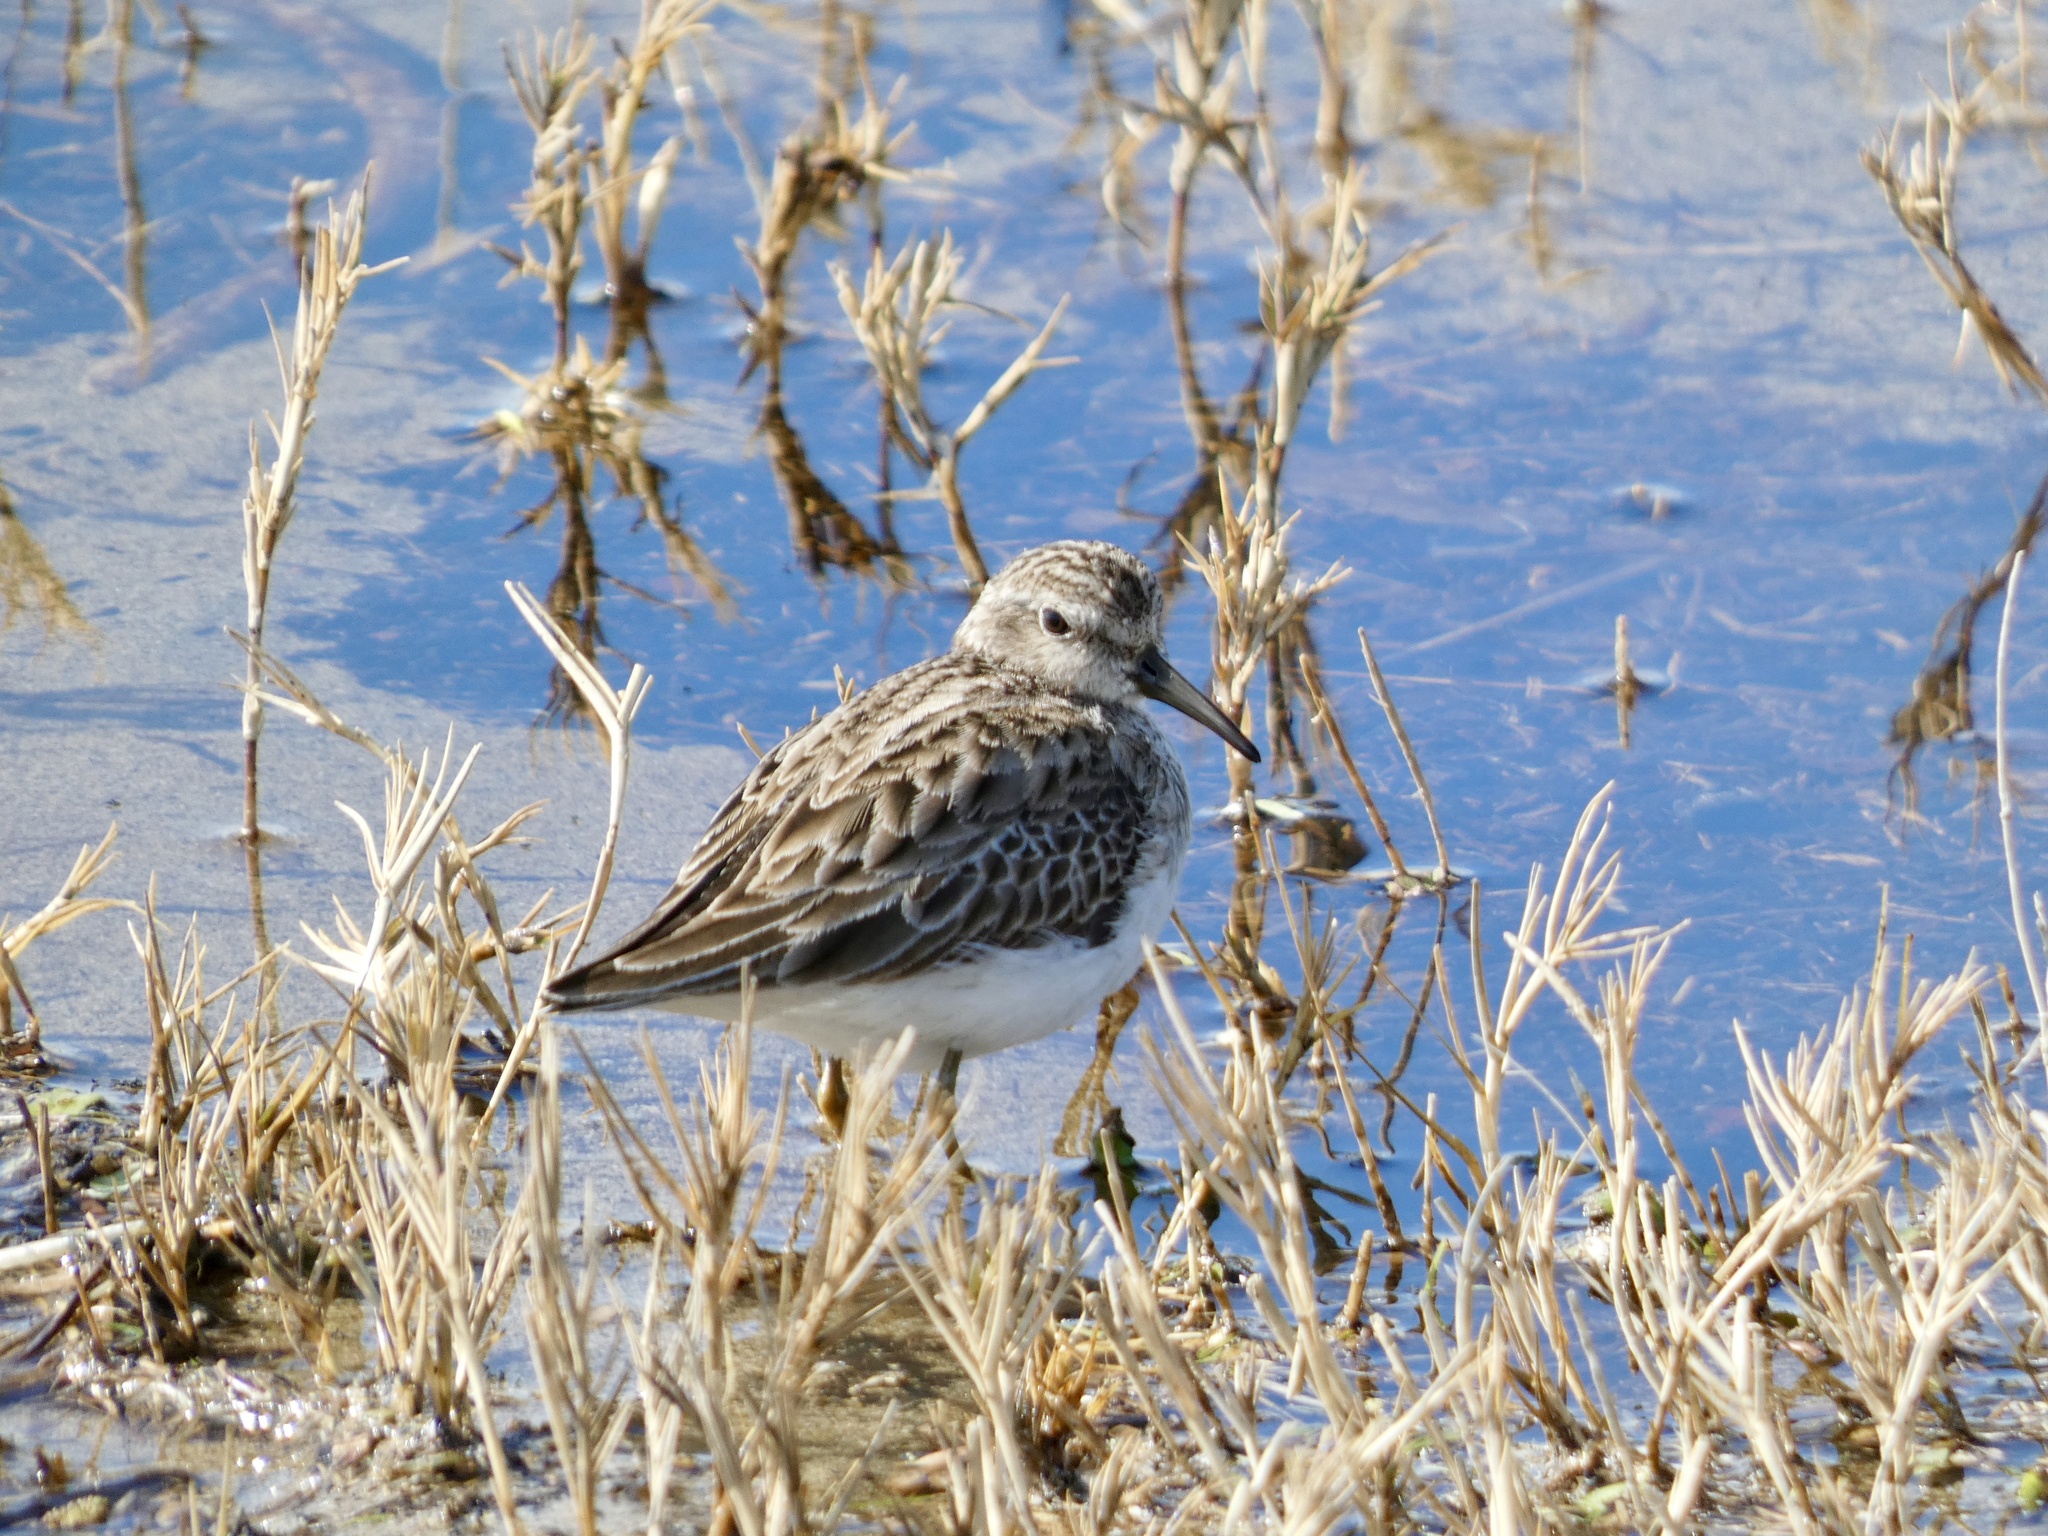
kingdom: Animalia
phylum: Chordata
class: Aves
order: Charadriiformes
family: Scolopacidae
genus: Calidris
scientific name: Calidris minutilla
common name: Least sandpiper
